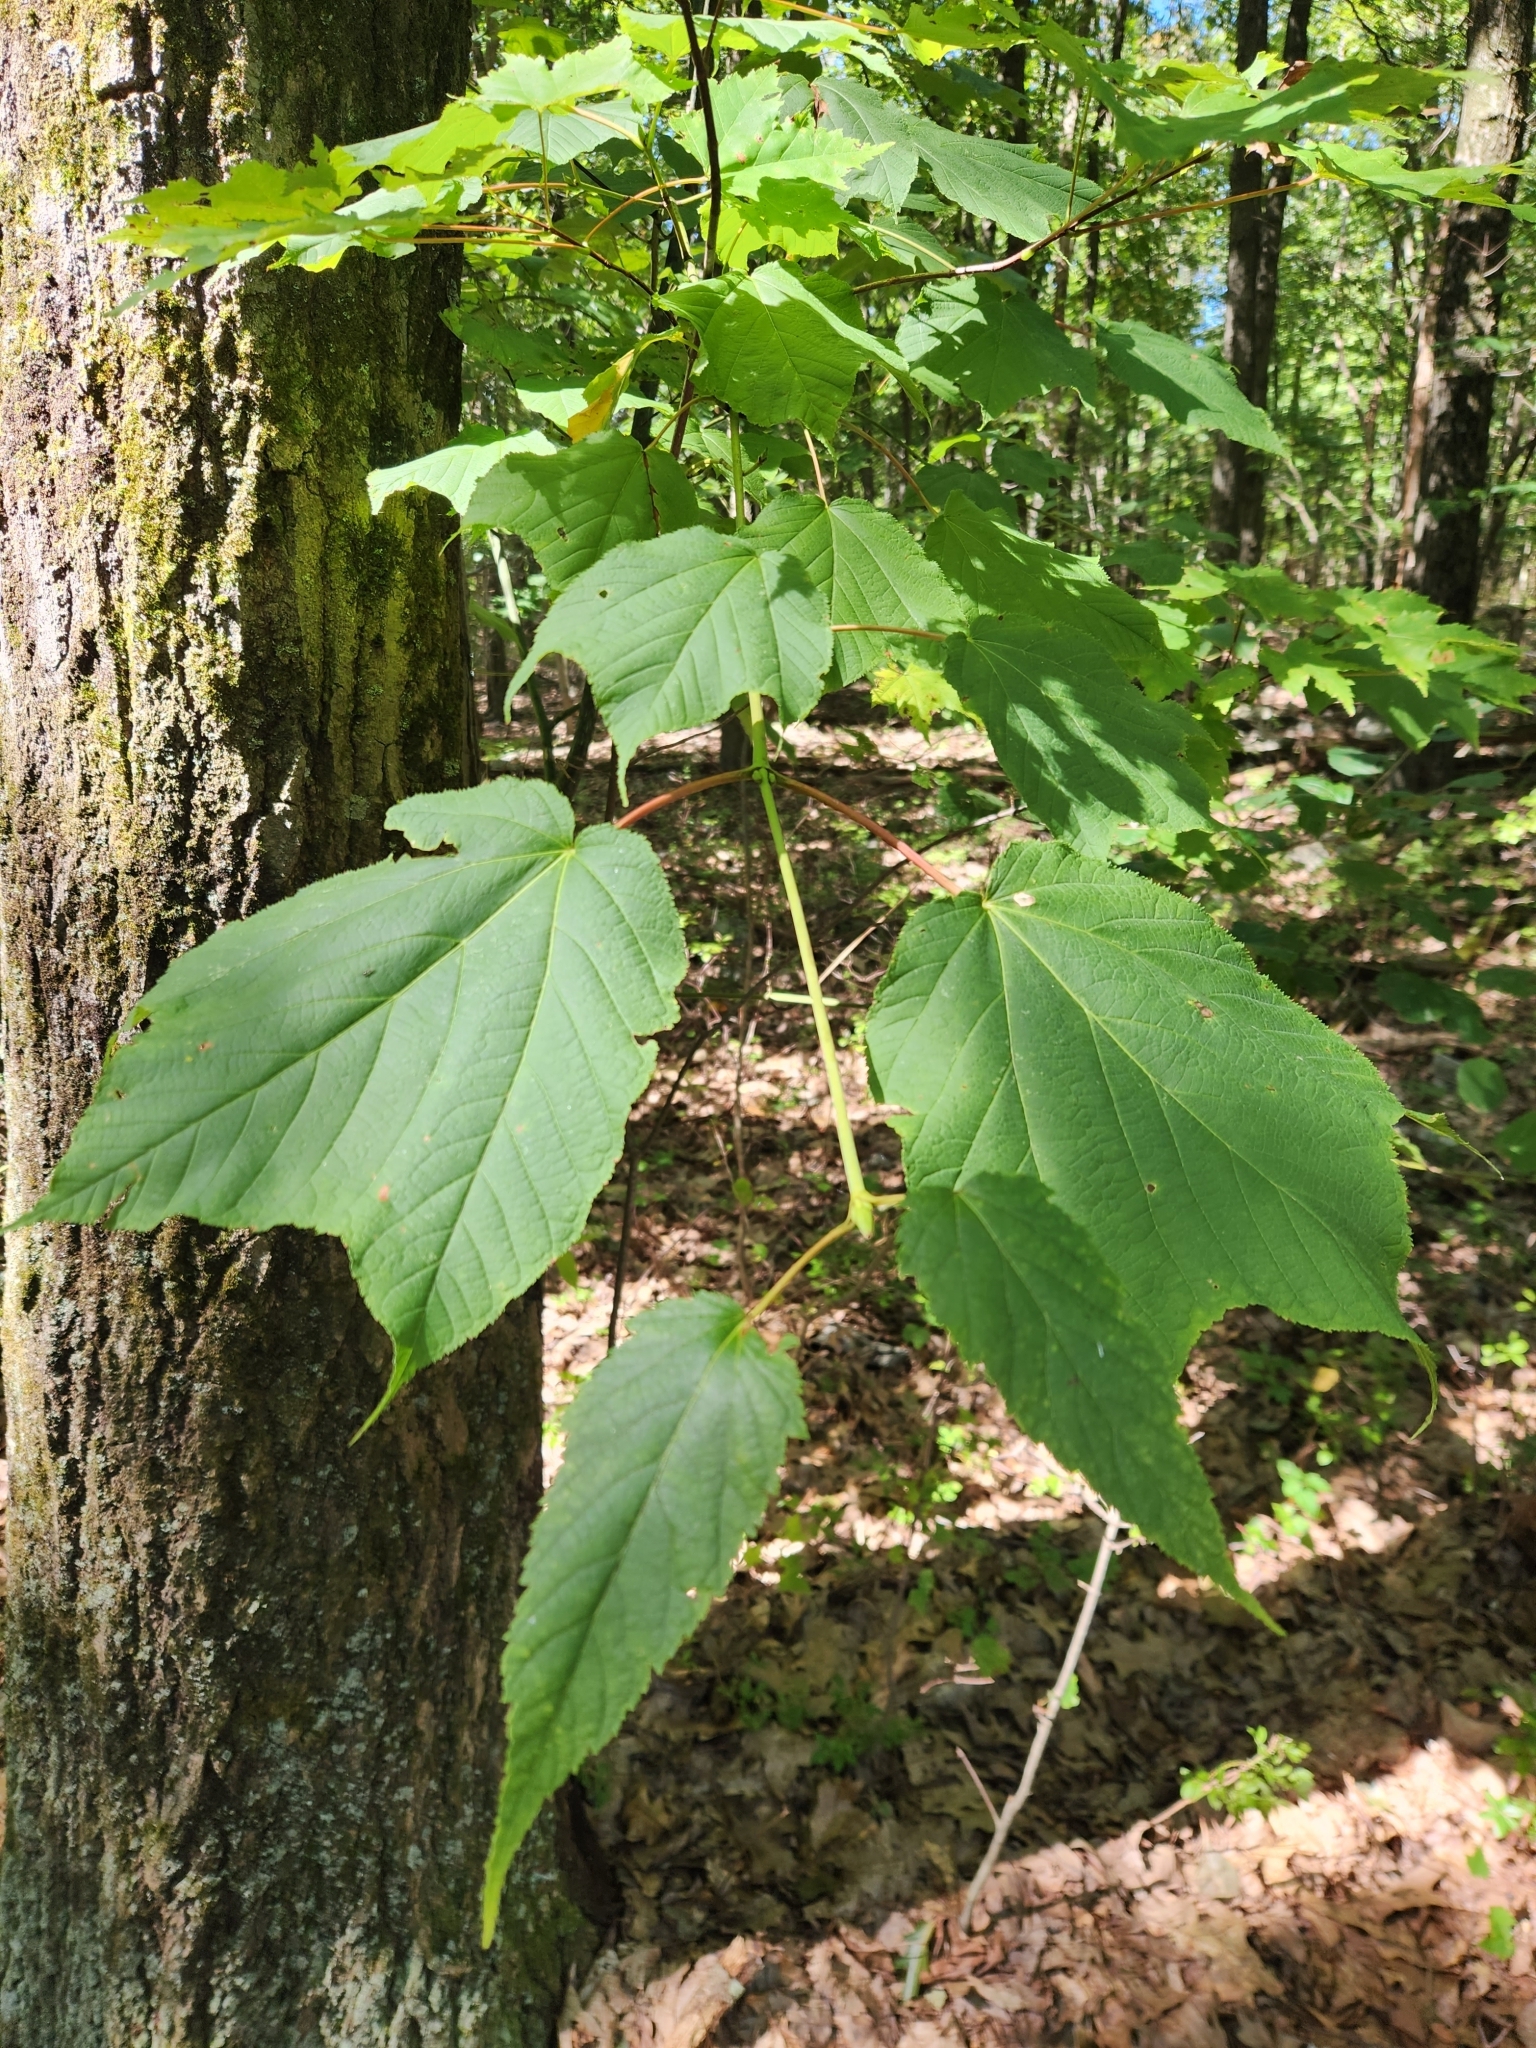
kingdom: Plantae
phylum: Tracheophyta
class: Magnoliopsida
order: Sapindales
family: Sapindaceae
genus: Acer
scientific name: Acer pensylvanicum
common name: Moosewood
